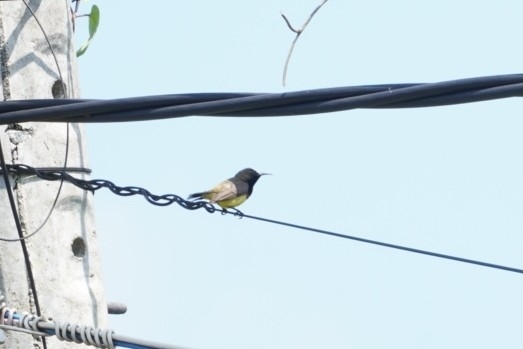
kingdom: Animalia
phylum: Chordata
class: Aves
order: Passeriformes
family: Nectariniidae
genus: Cinnyris
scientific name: Cinnyris
